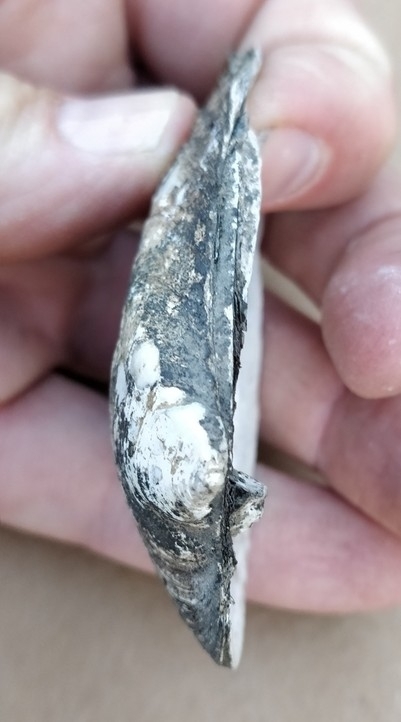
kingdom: Animalia
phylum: Mollusca
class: Bivalvia
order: Unionida
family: Unionidae
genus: Fusconaia
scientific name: Fusconaia flava
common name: Wabash pigtoe
